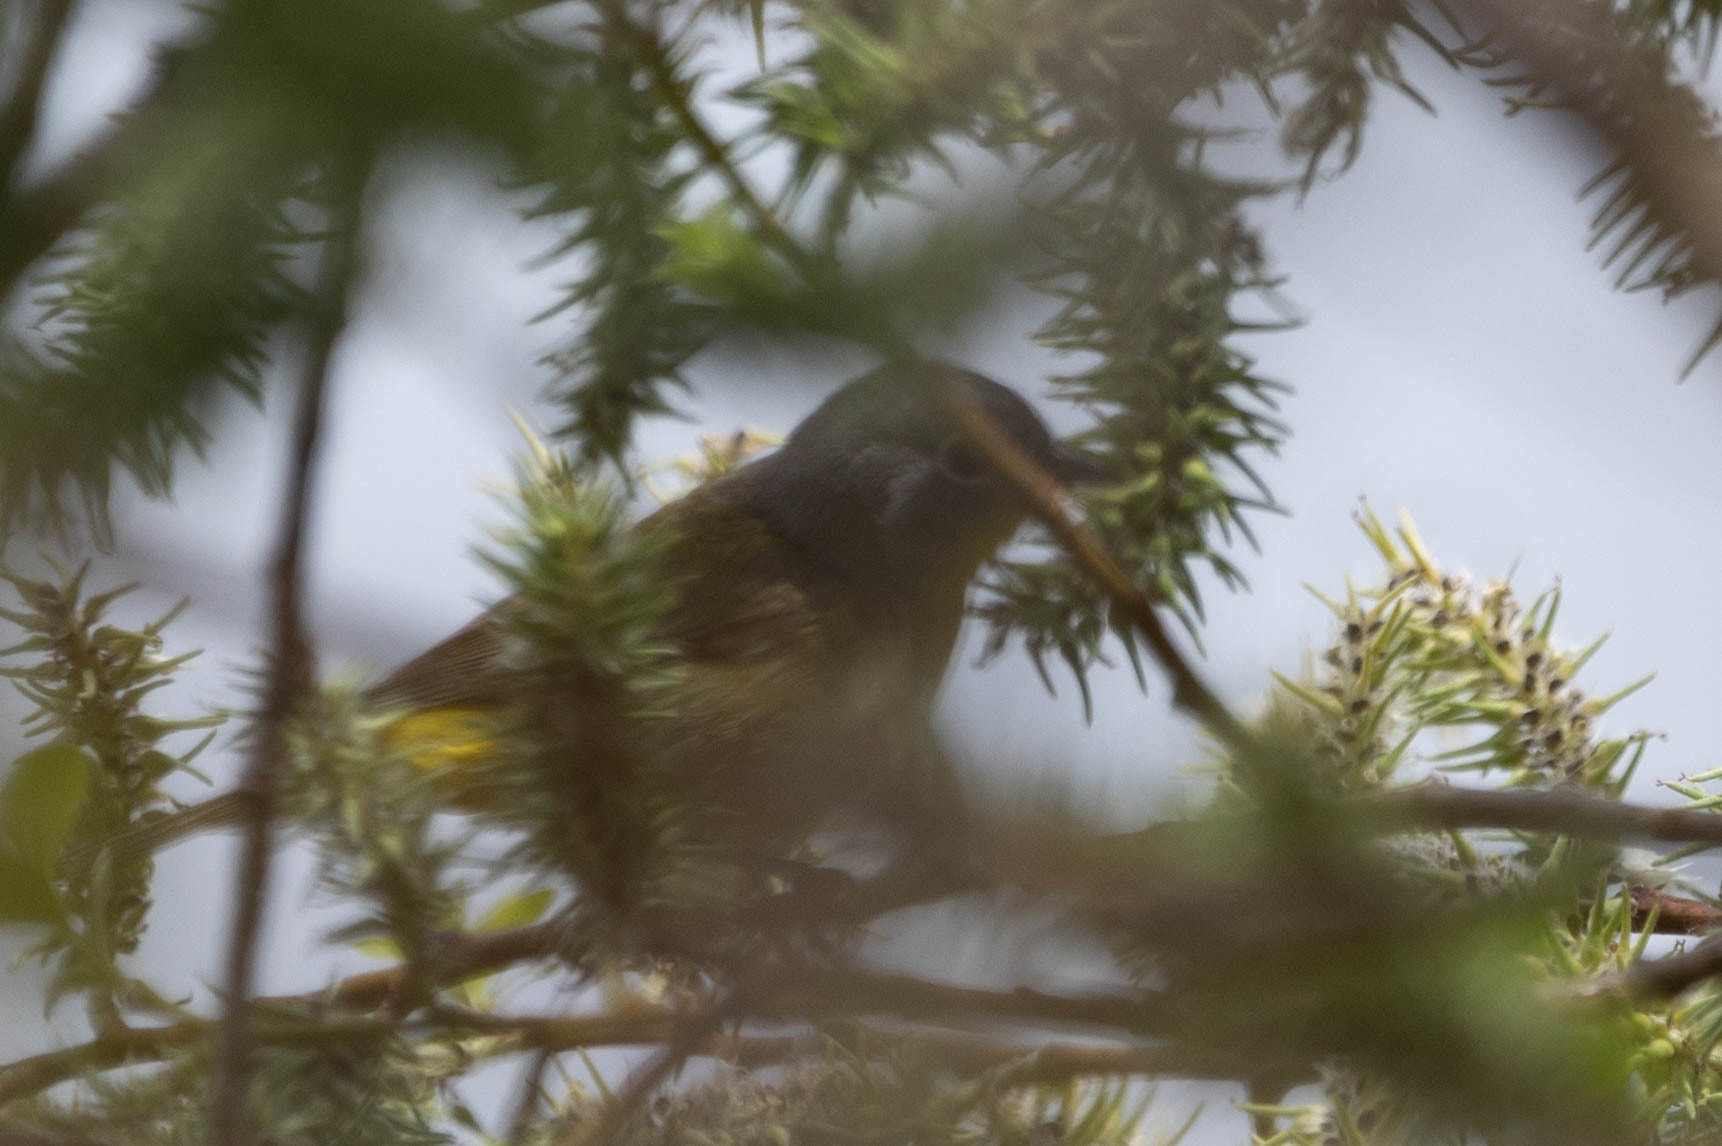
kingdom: Animalia
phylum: Chordata
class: Aves
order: Passeriformes
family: Parulidae
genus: Leiothlypis
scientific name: Leiothlypis ruficapilla
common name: Nashville warbler
